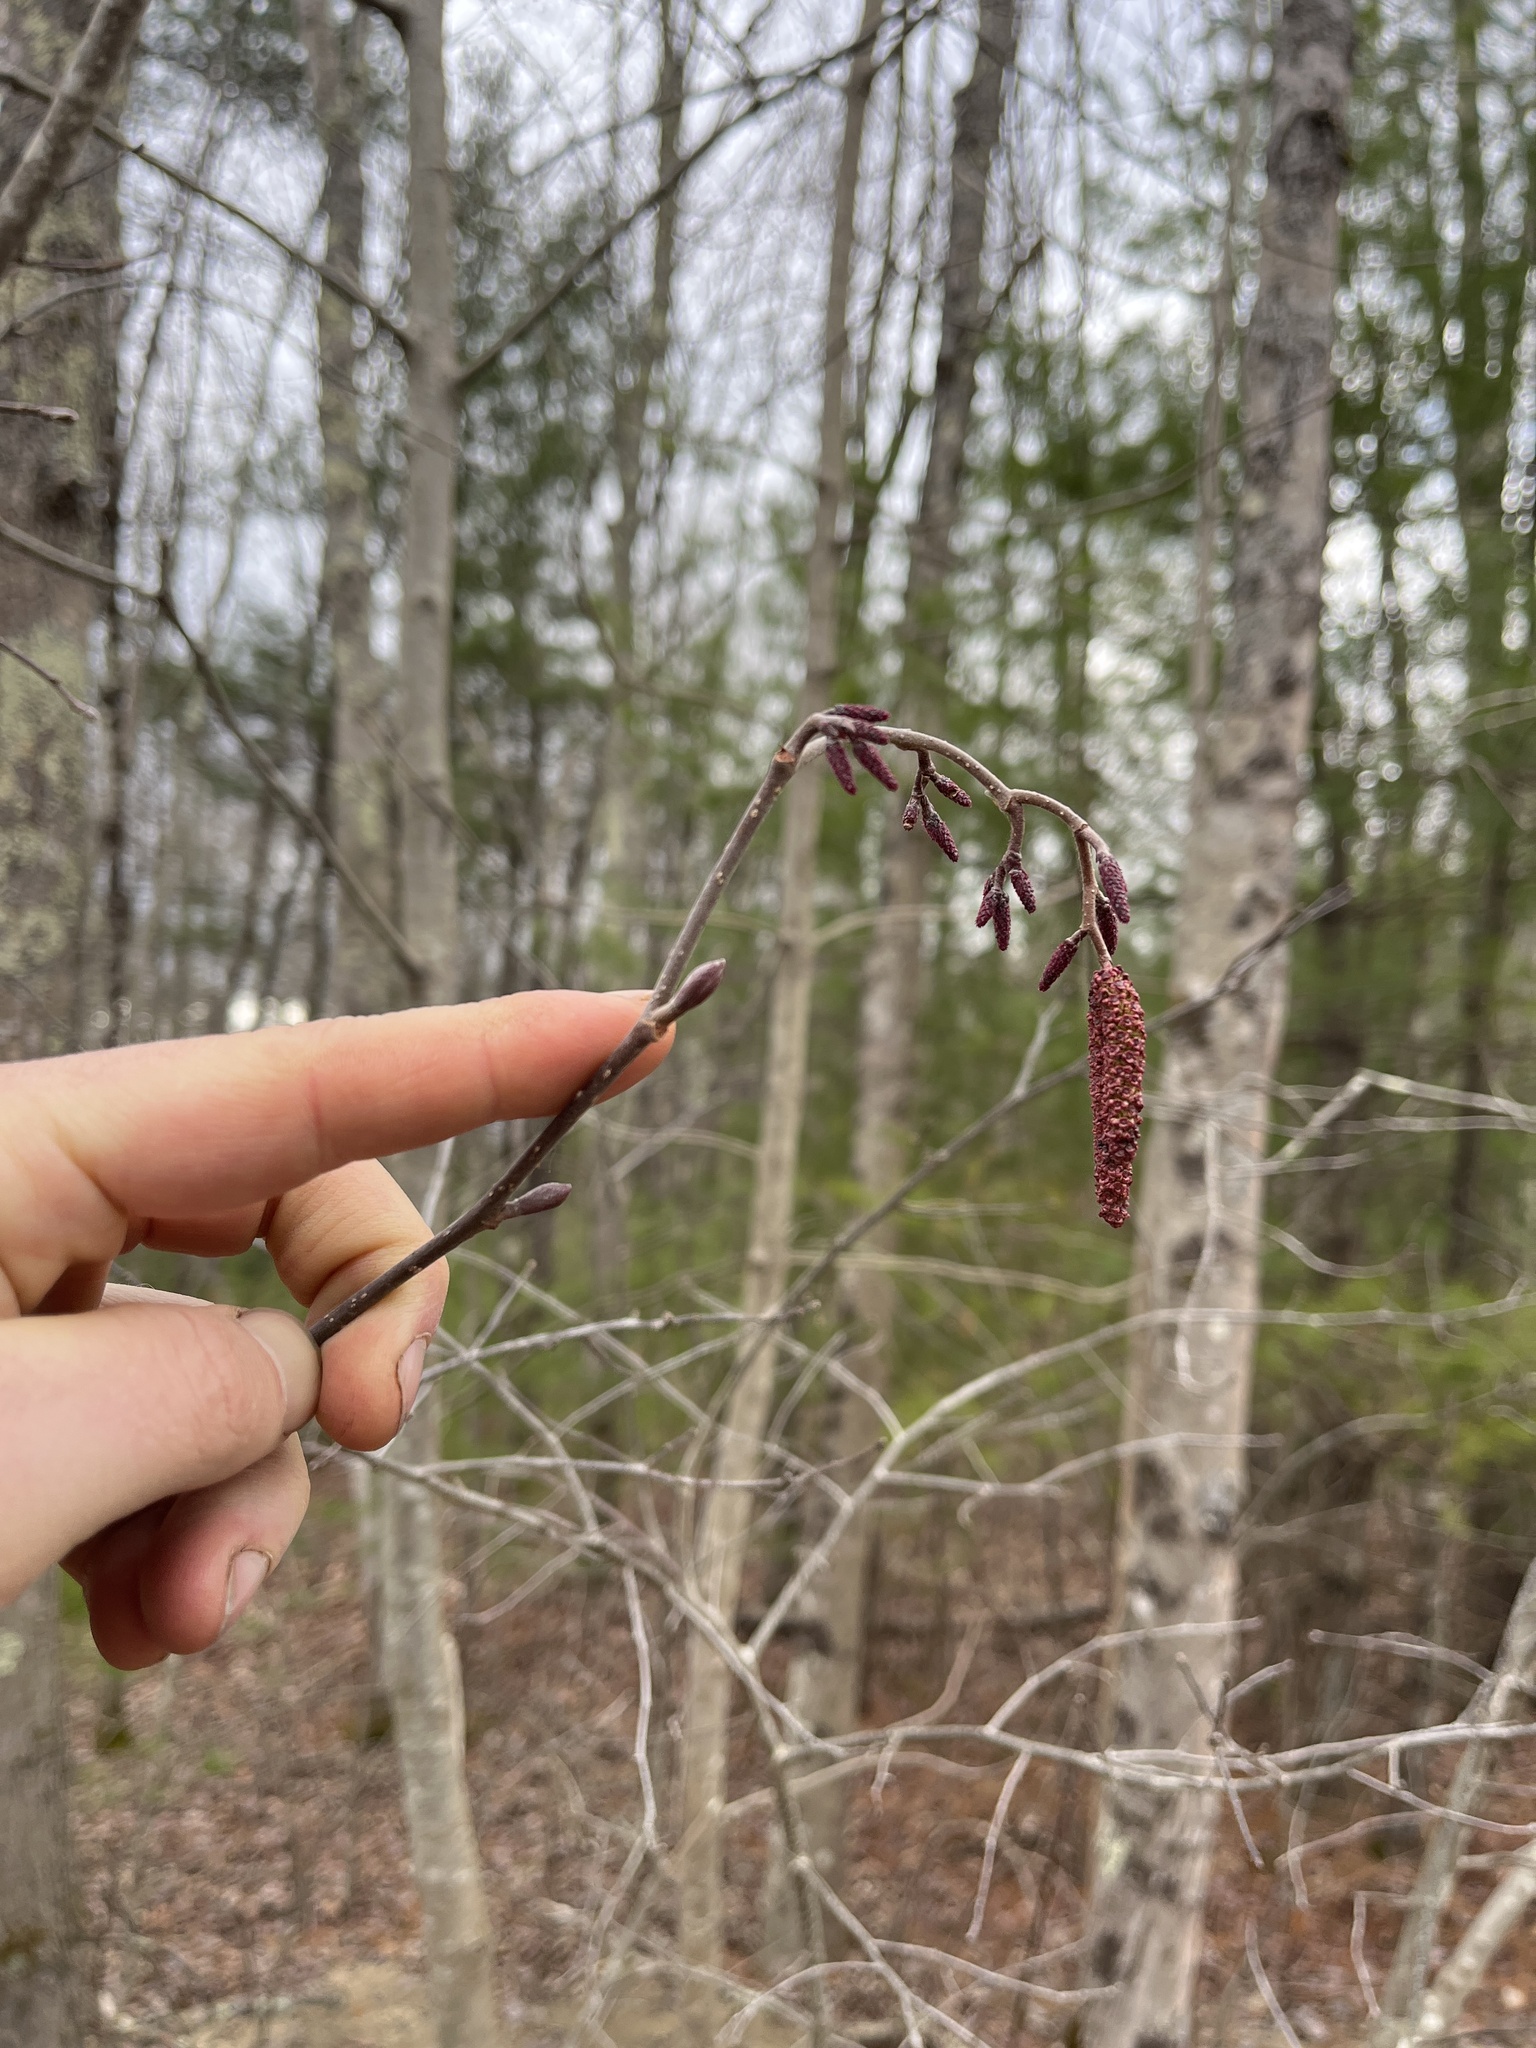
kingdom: Plantae
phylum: Tracheophyta
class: Magnoliopsida
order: Fagales
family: Betulaceae
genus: Alnus
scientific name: Alnus serrulata
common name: Hazel alder
